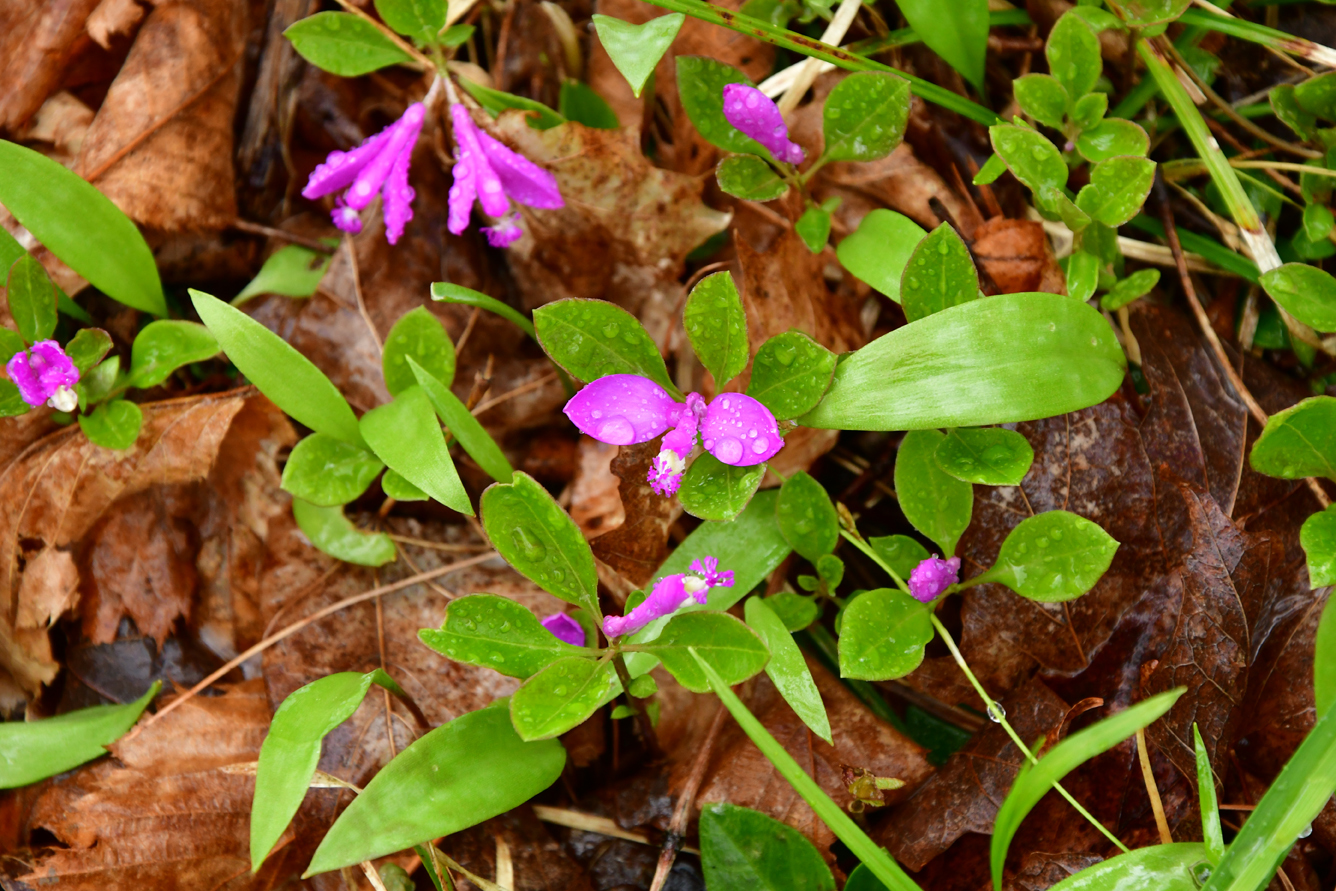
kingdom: Plantae
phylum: Tracheophyta
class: Magnoliopsida
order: Fabales
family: Polygalaceae
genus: Polygaloides
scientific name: Polygaloides paucifolia
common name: Bird-on-the-wing
